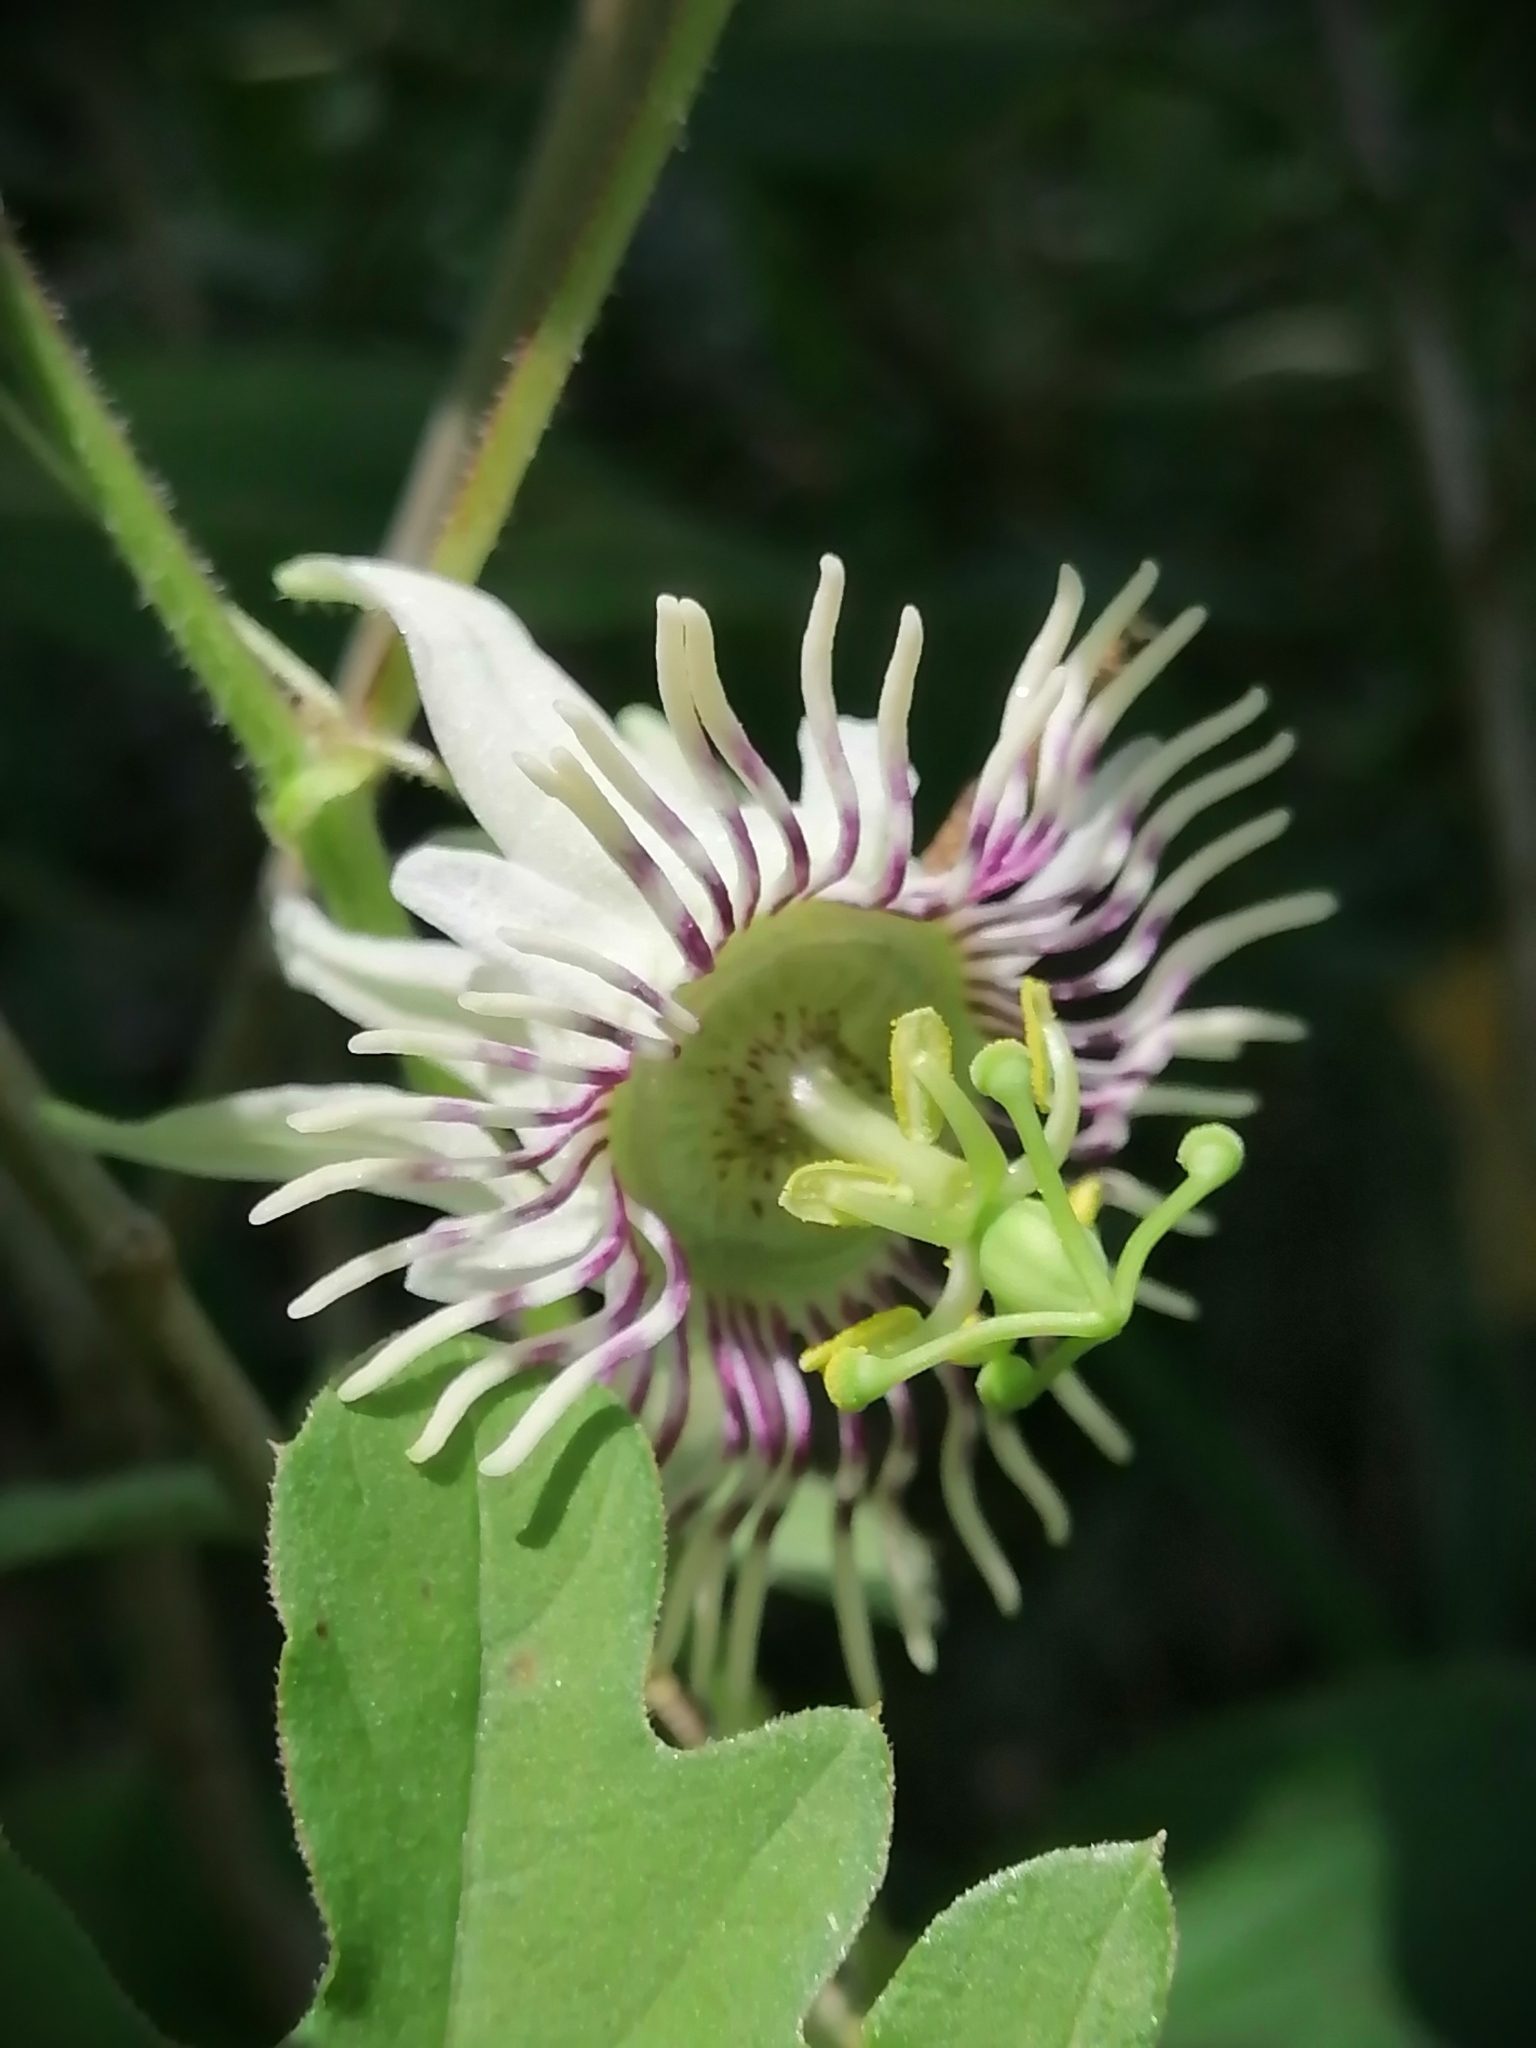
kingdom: Plantae
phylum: Tracheophyta
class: Magnoliopsida
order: Malpighiales
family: Passifloraceae
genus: Passiflora
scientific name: Passiflora bryonioides
